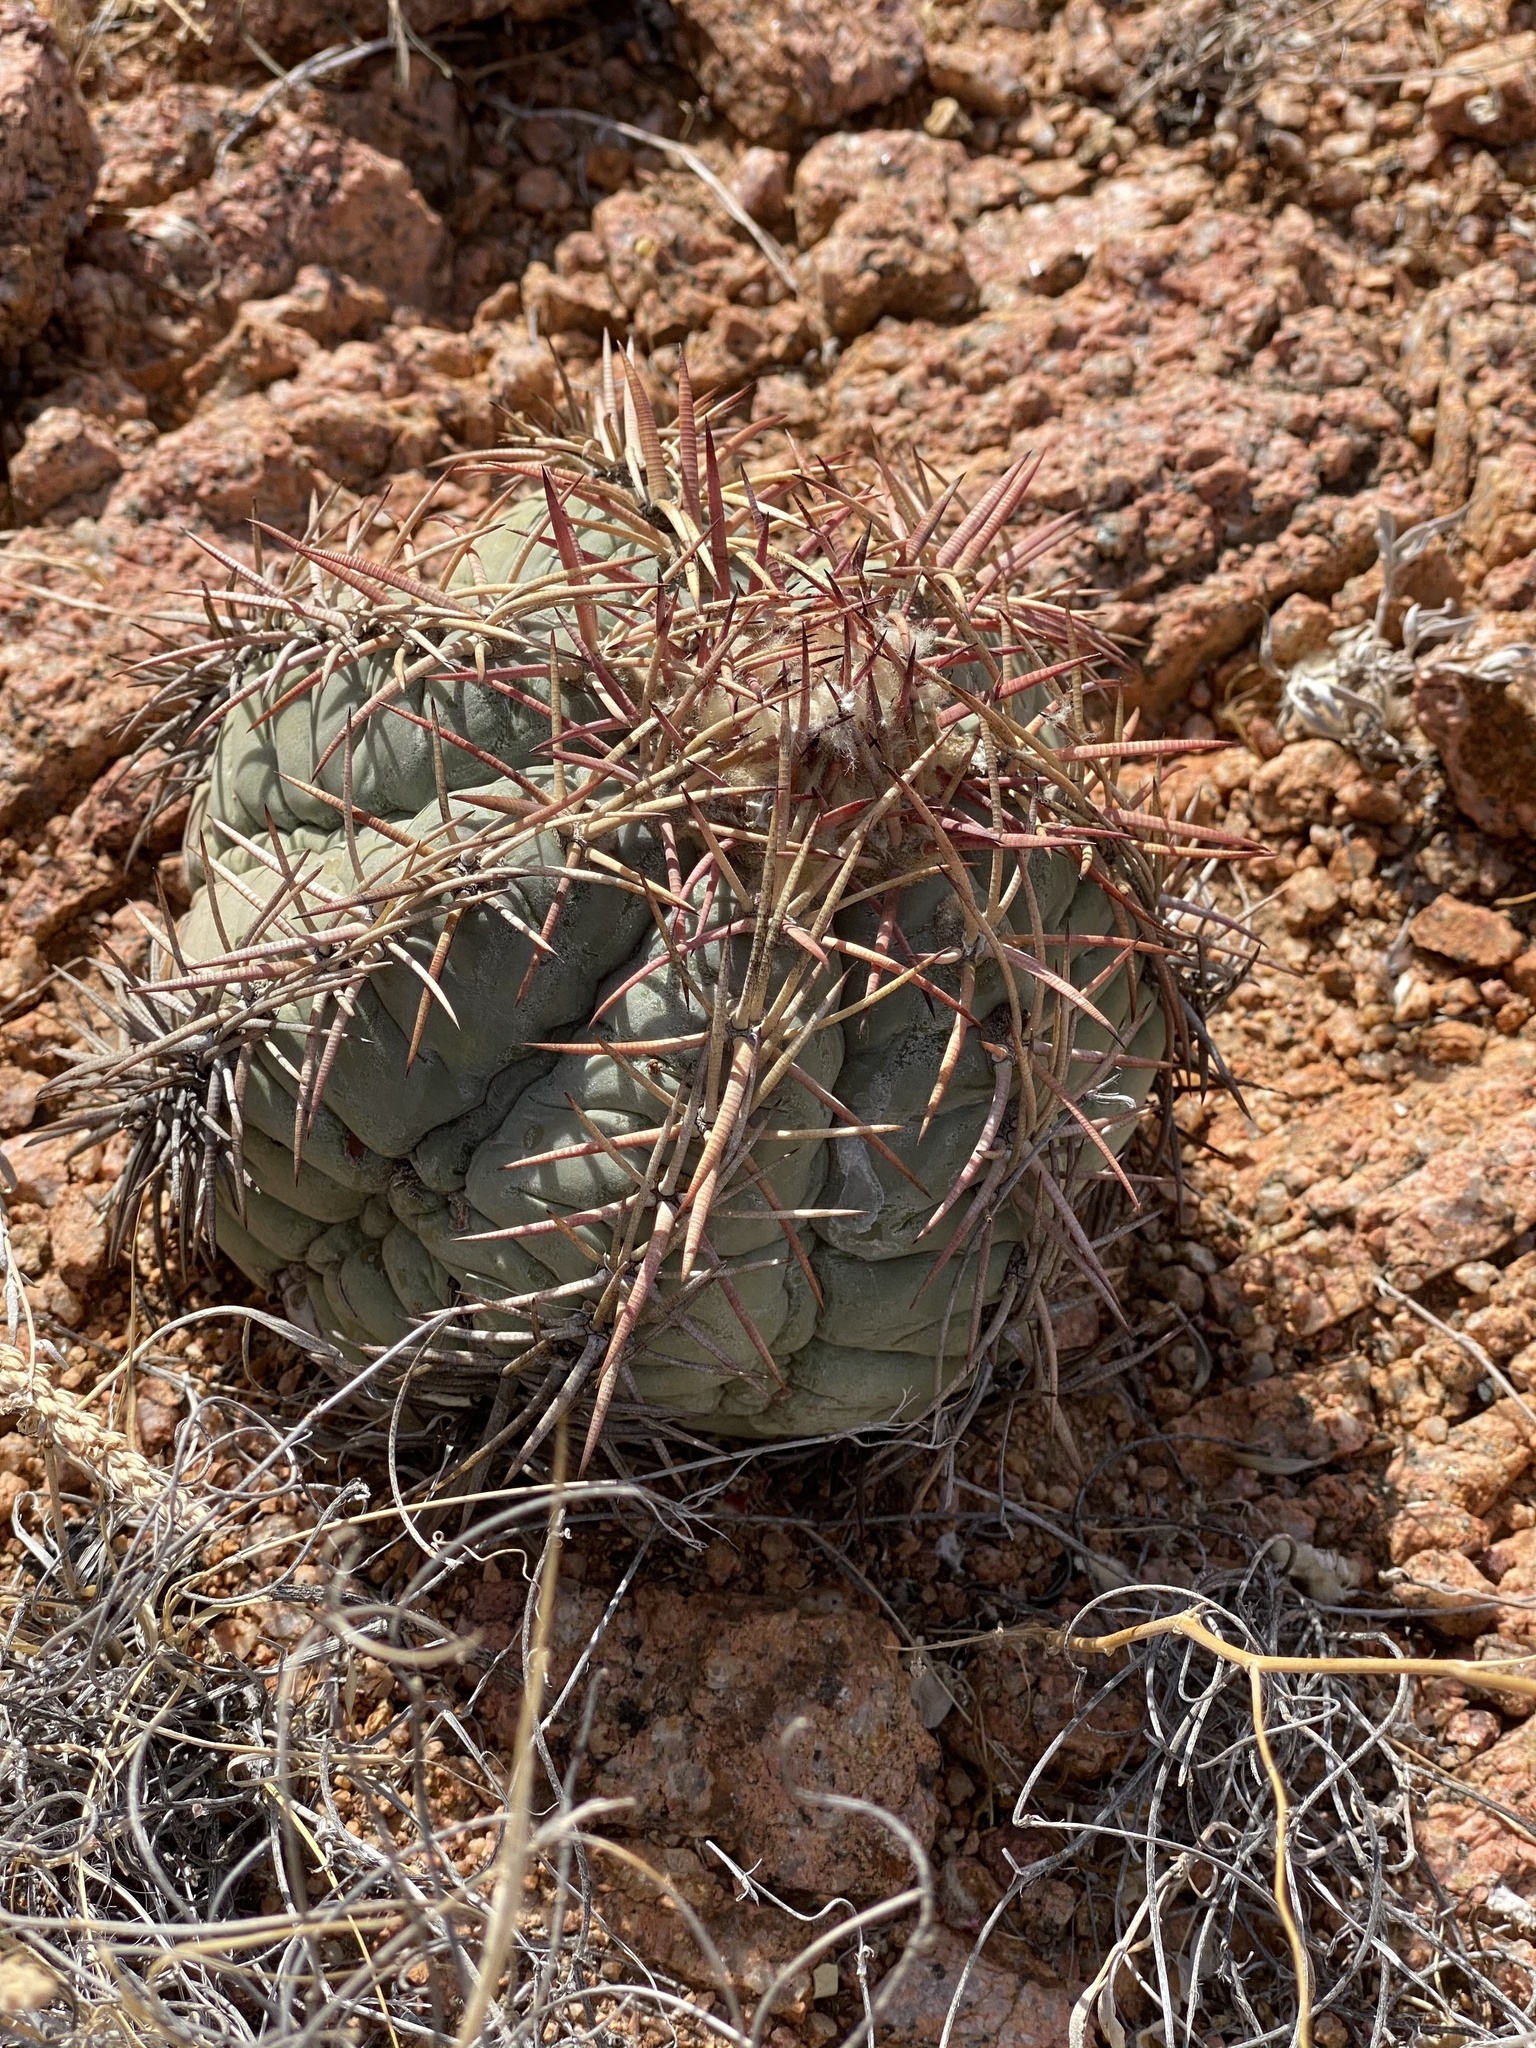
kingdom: Plantae
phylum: Tracheophyta
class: Magnoliopsida
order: Caryophyllales
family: Cactaceae
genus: Echinocactus
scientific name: Echinocactus horizonthalonius
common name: Devilshead
